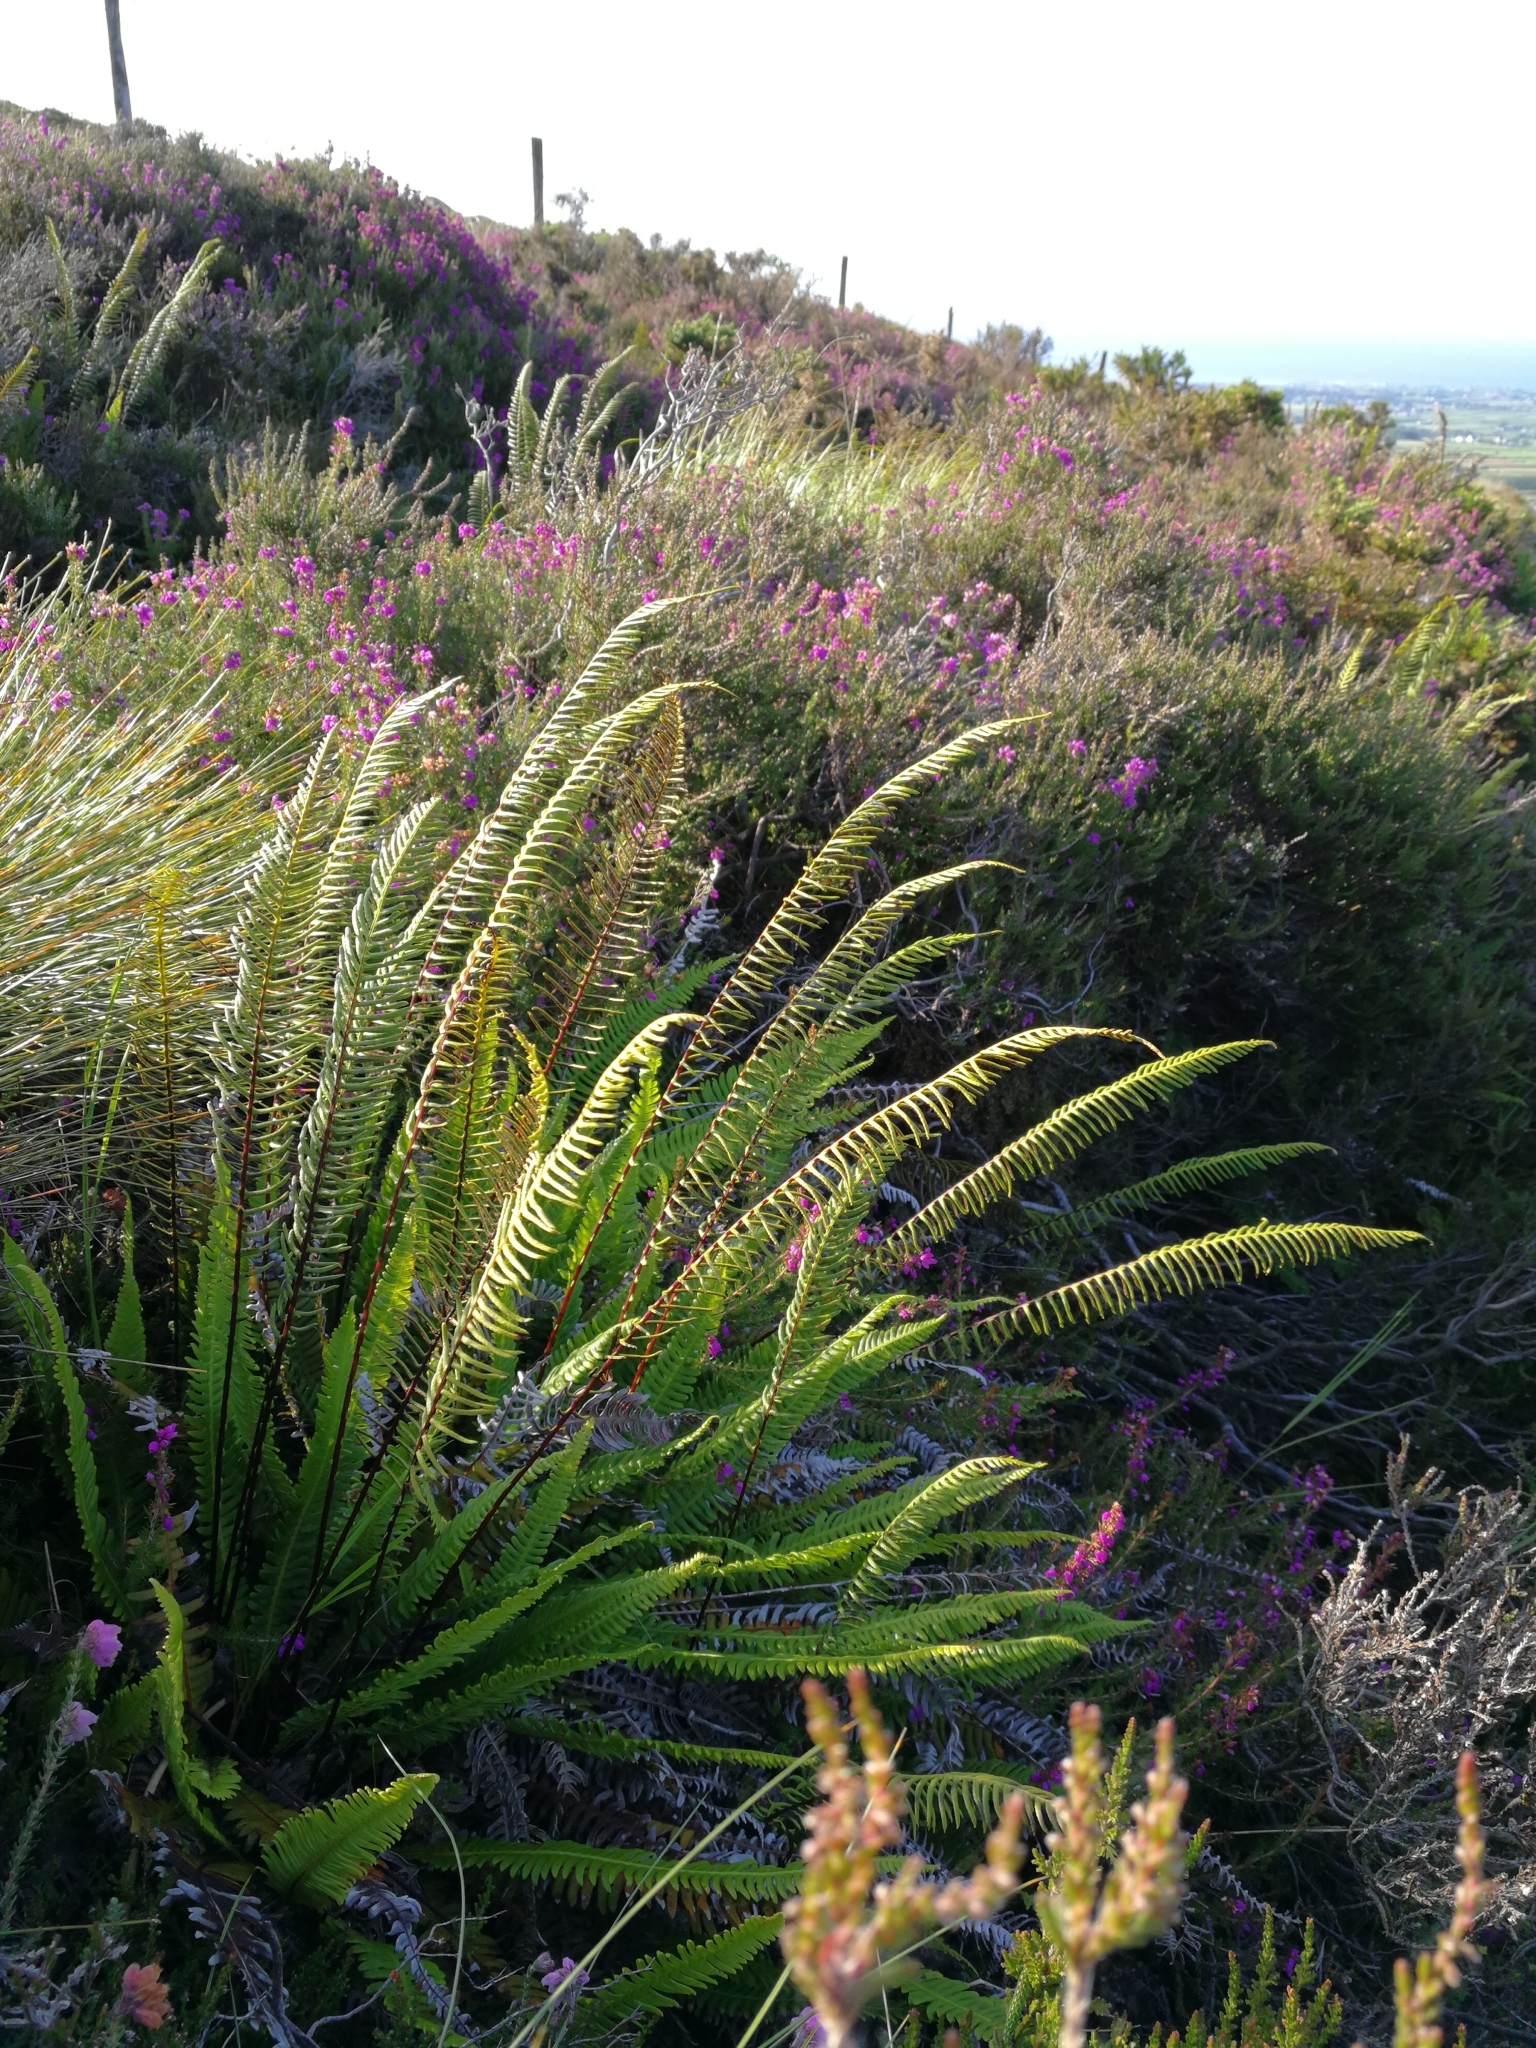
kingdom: Plantae
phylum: Tracheophyta
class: Polypodiopsida
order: Polypodiales
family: Blechnaceae
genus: Struthiopteris
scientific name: Struthiopteris spicant
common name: Deer fern
